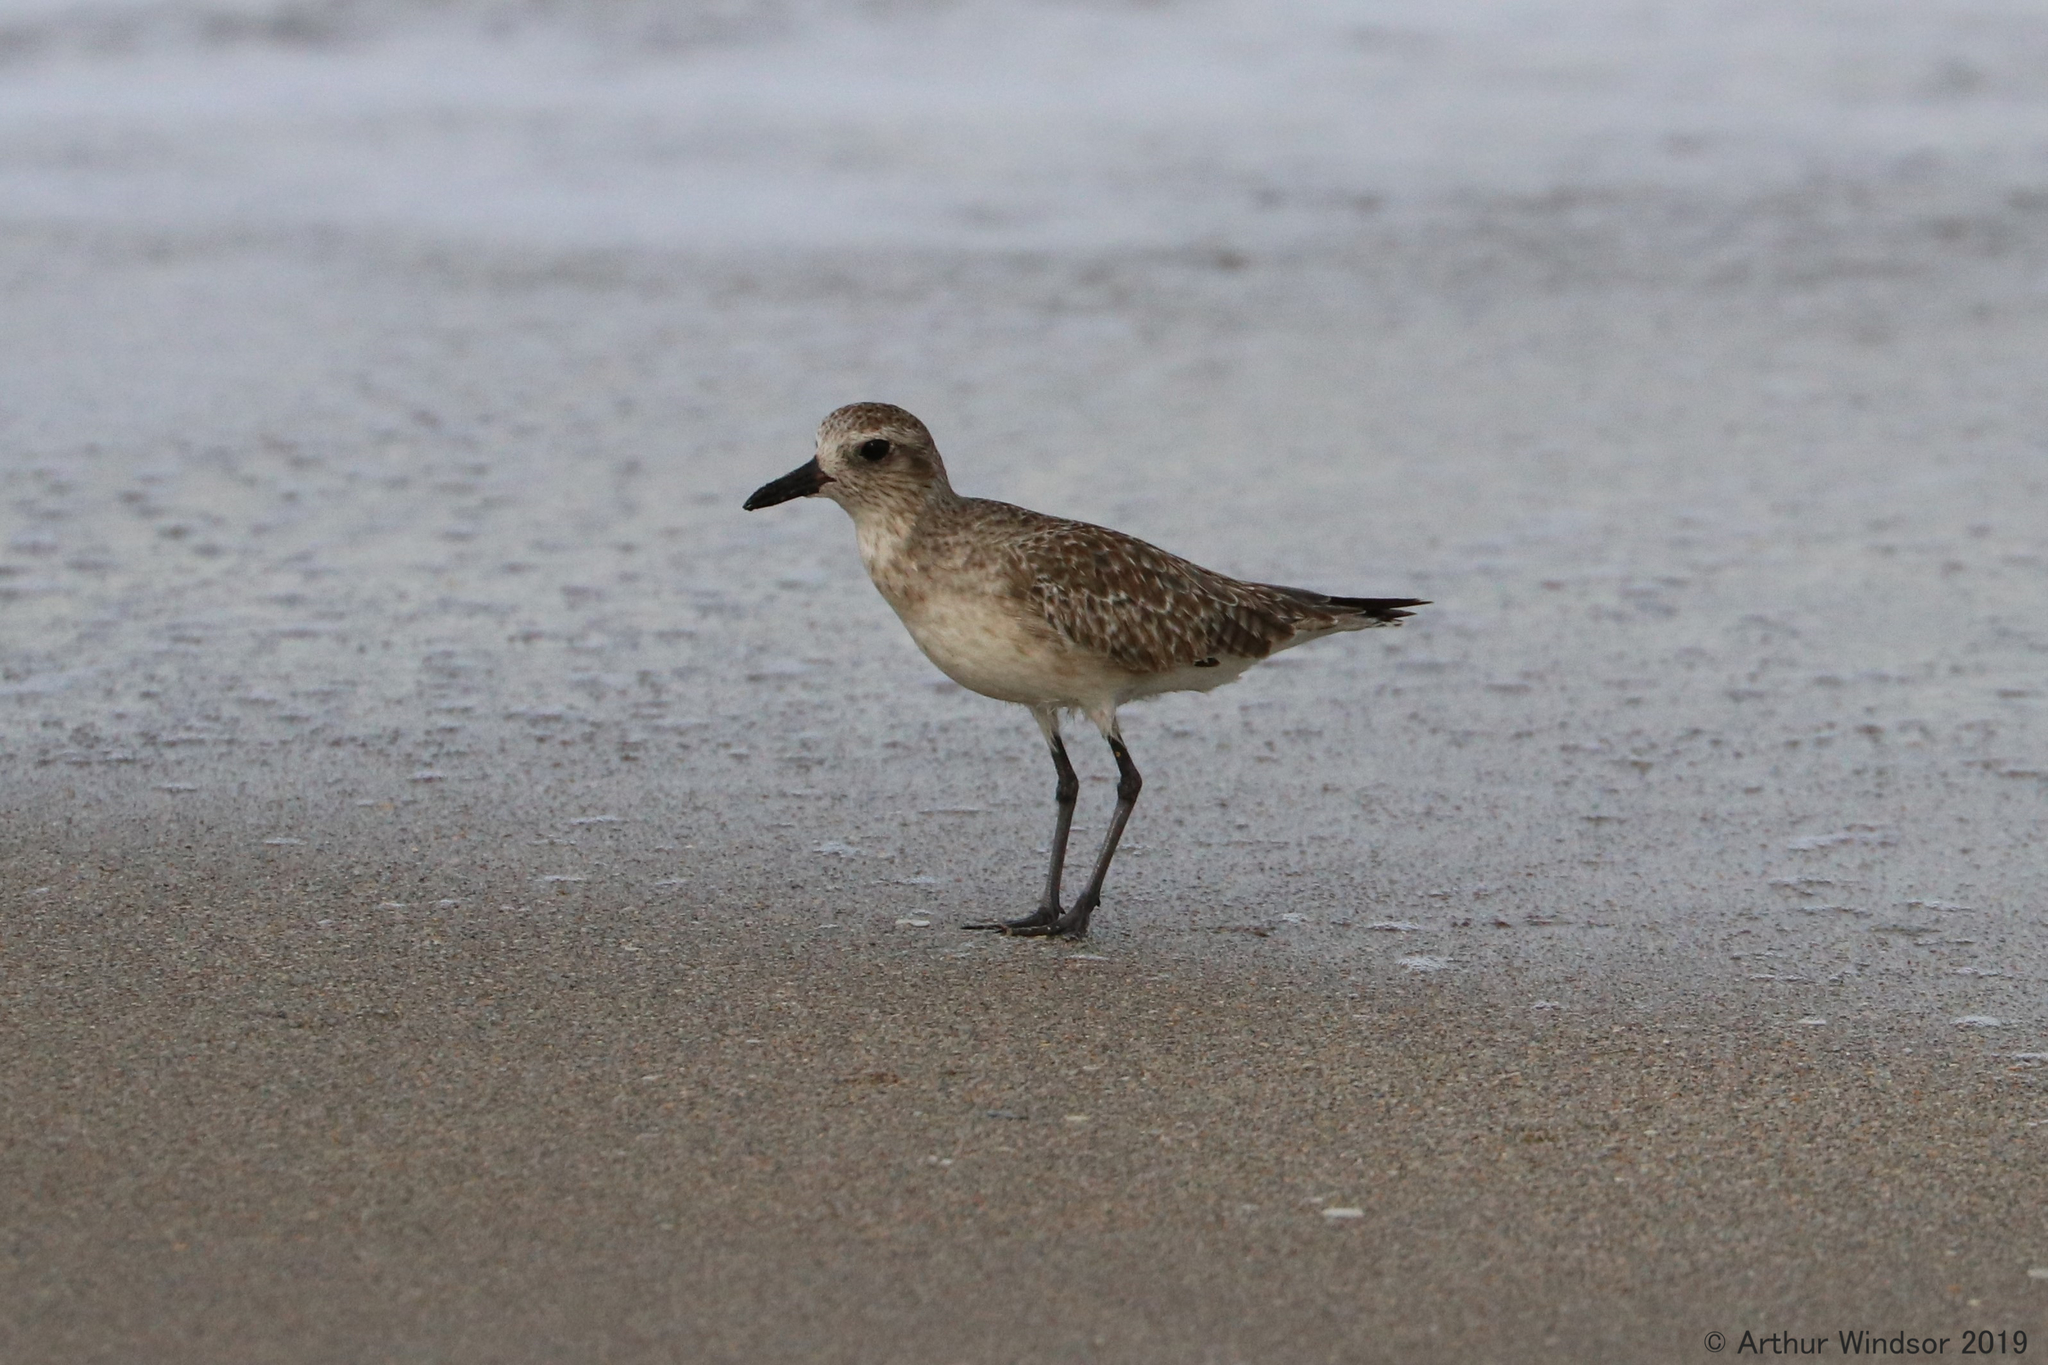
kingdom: Animalia
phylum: Chordata
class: Aves
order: Charadriiformes
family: Charadriidae
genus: Pluvialis
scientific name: Pluvialis squatarola
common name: Grey plover
